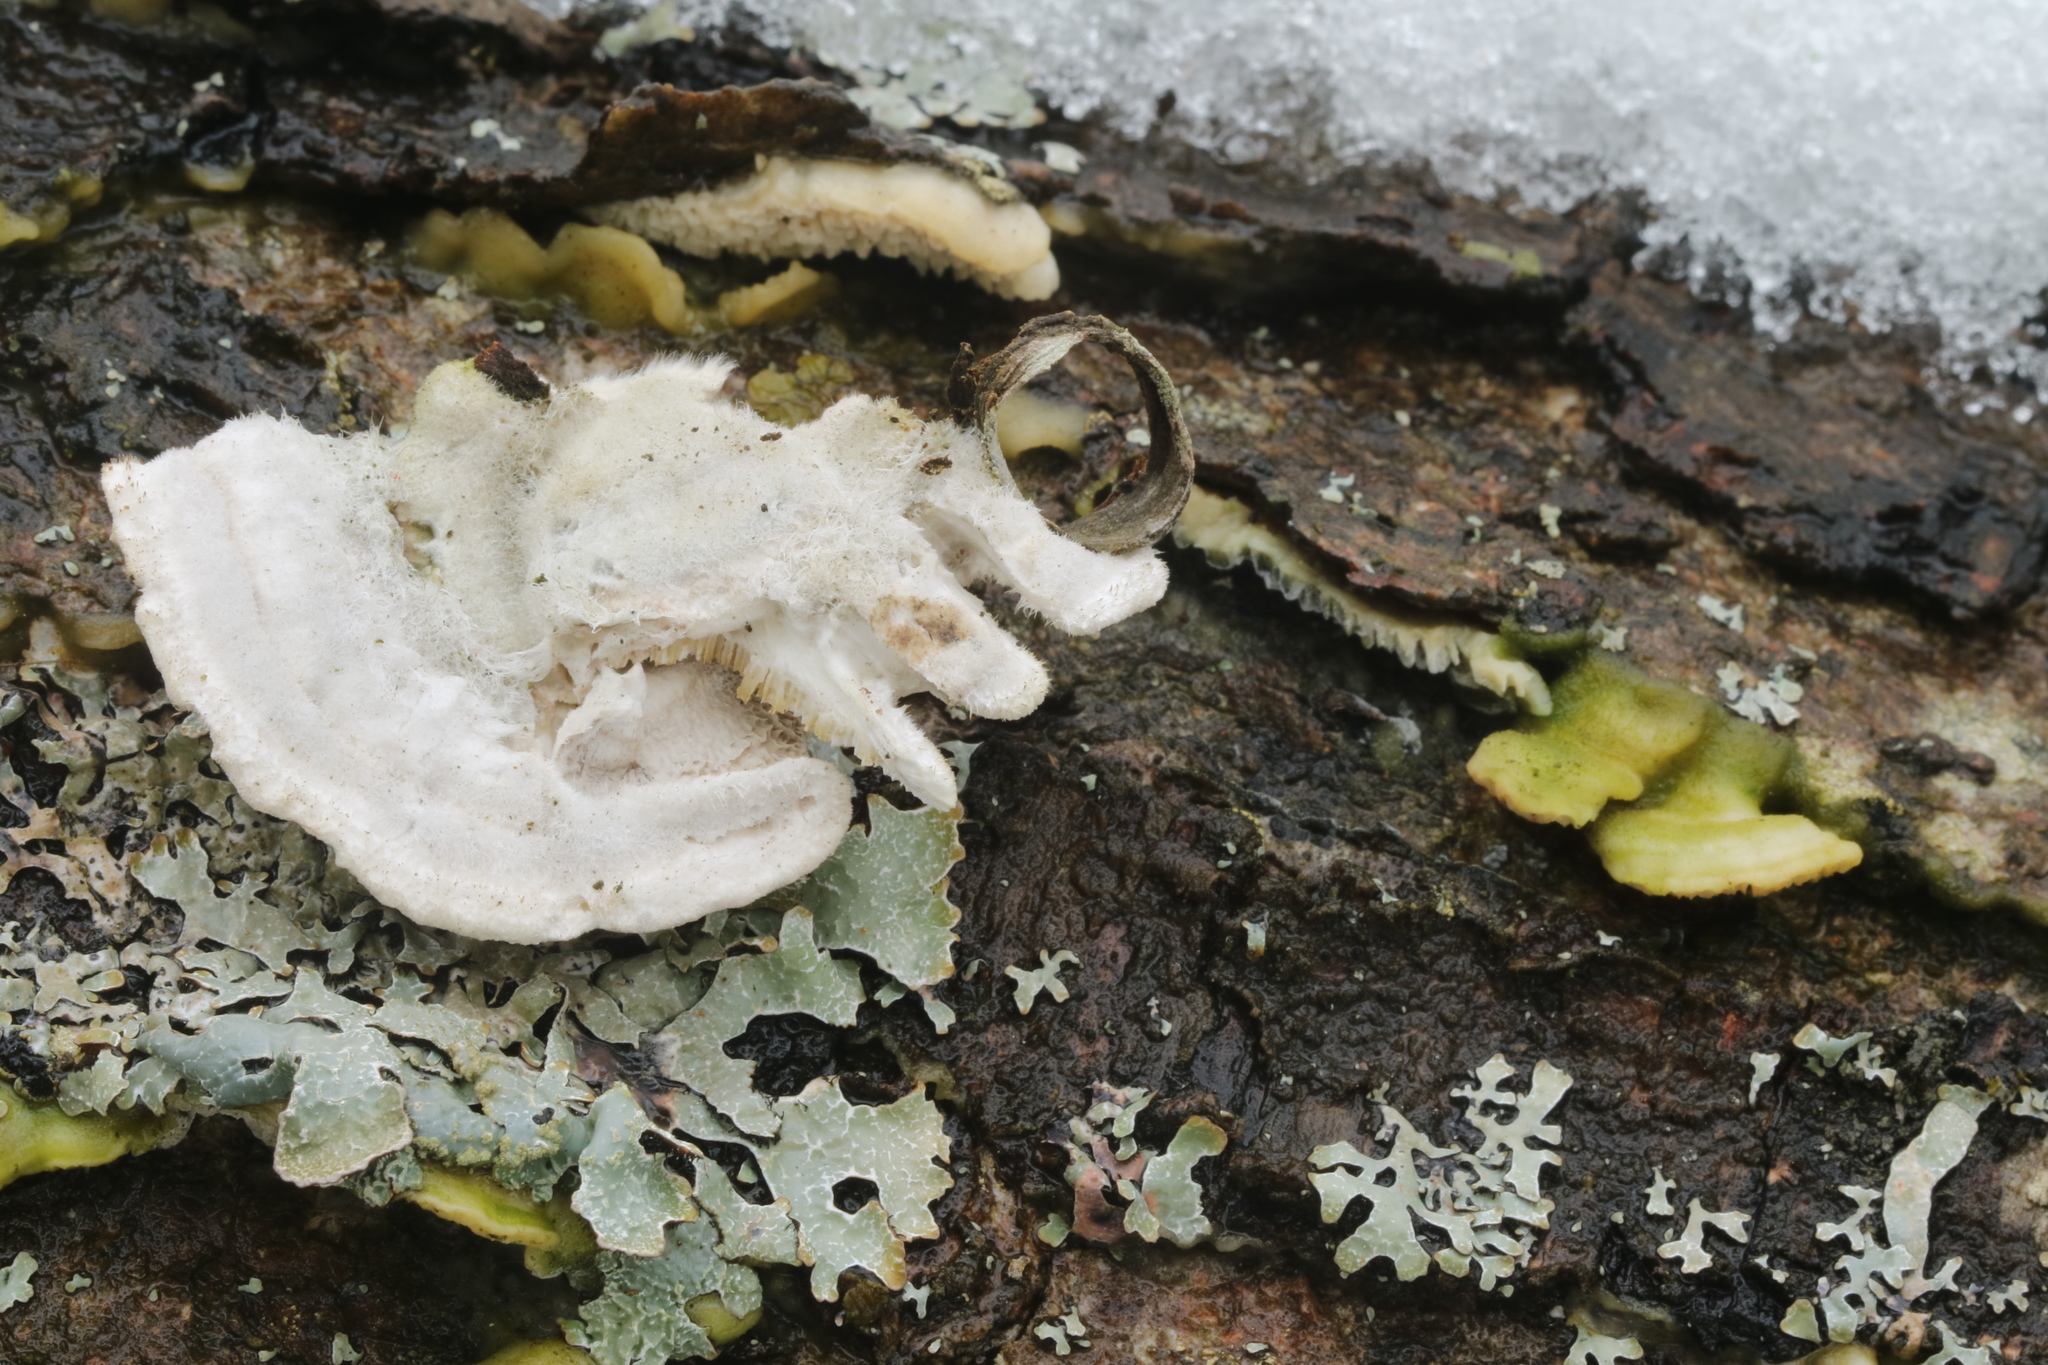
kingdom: Fungi
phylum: Basidiomycota
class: Agaricomycetes
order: Polyporales
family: Polyporaceae
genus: Trametes
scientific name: Trametes hirsuta
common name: Hairy bracket
